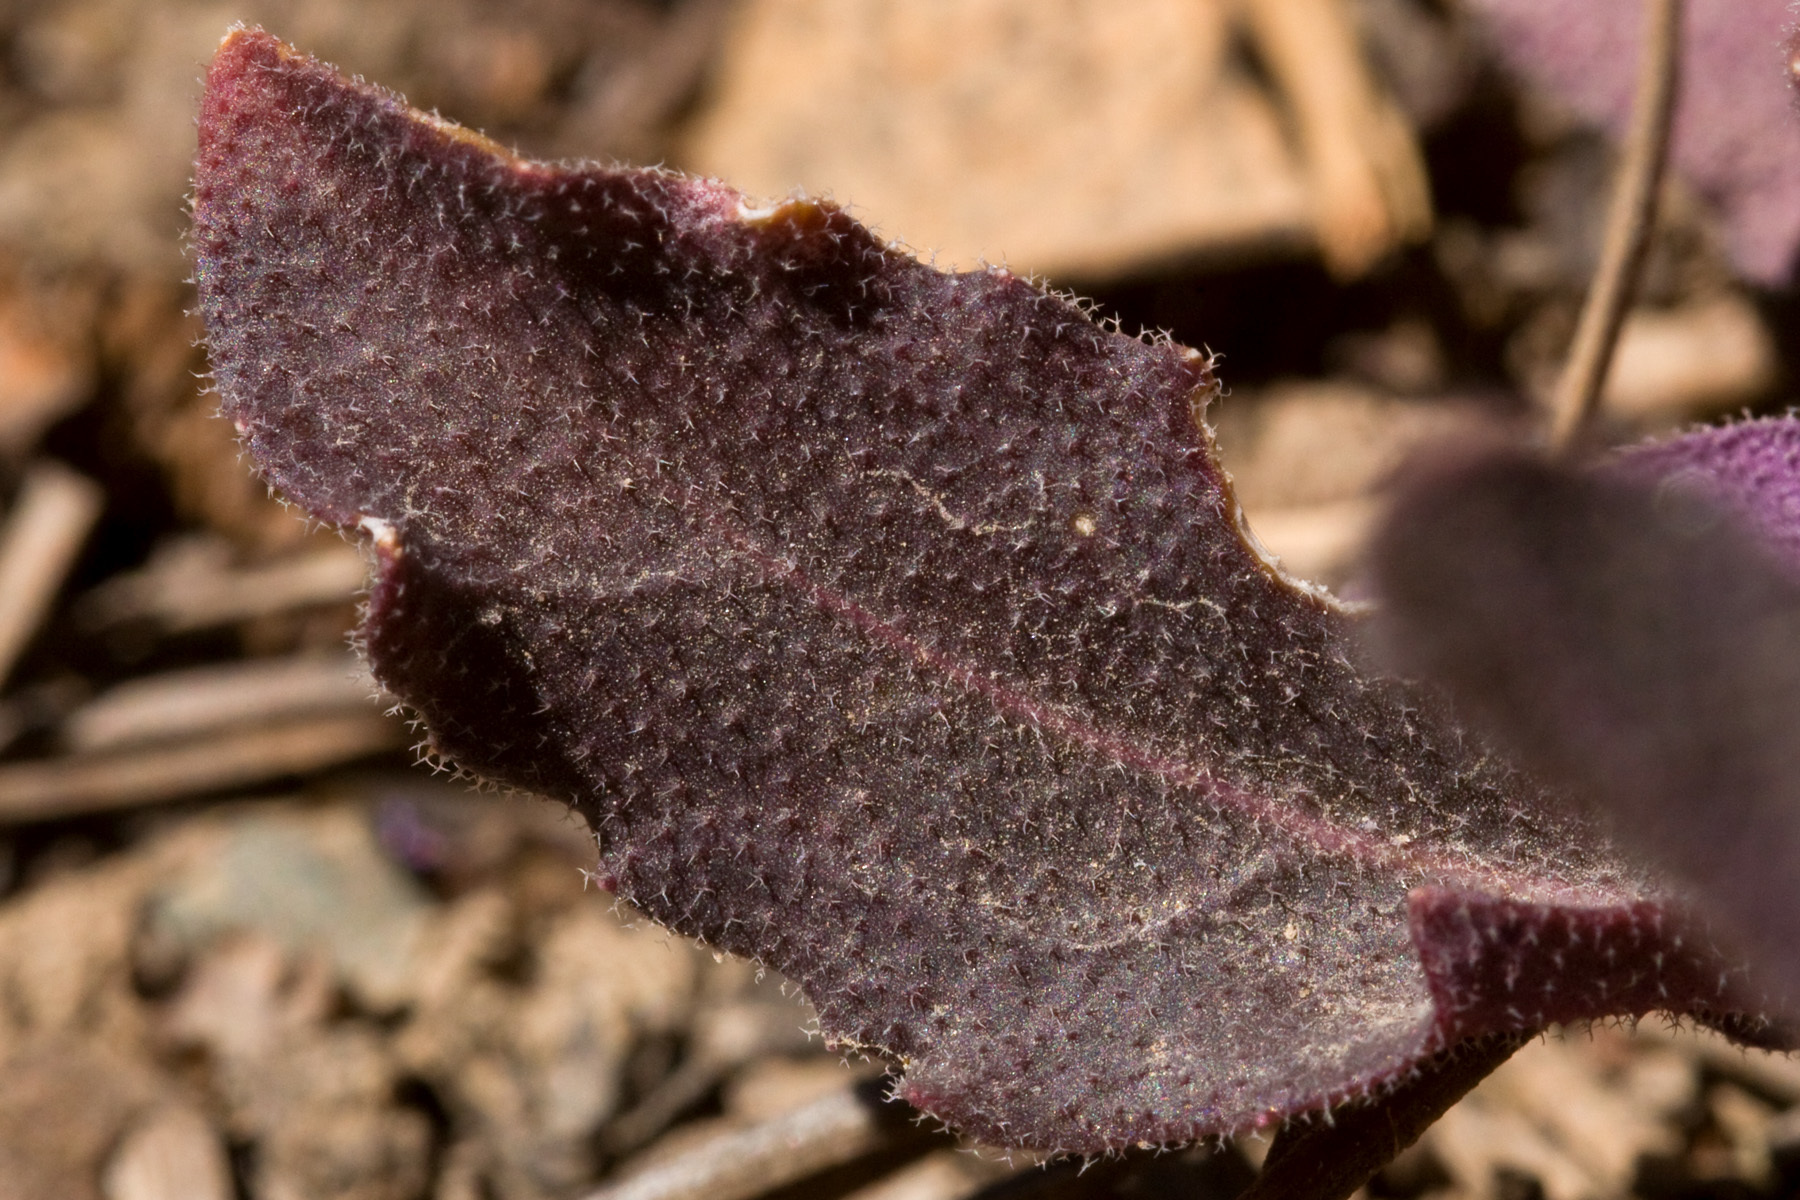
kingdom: Plantae
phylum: Tracheophyta
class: Magnoliopsida
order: Brassicales
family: Brassicaceae
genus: Boechera
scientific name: Boechera gracilipes
